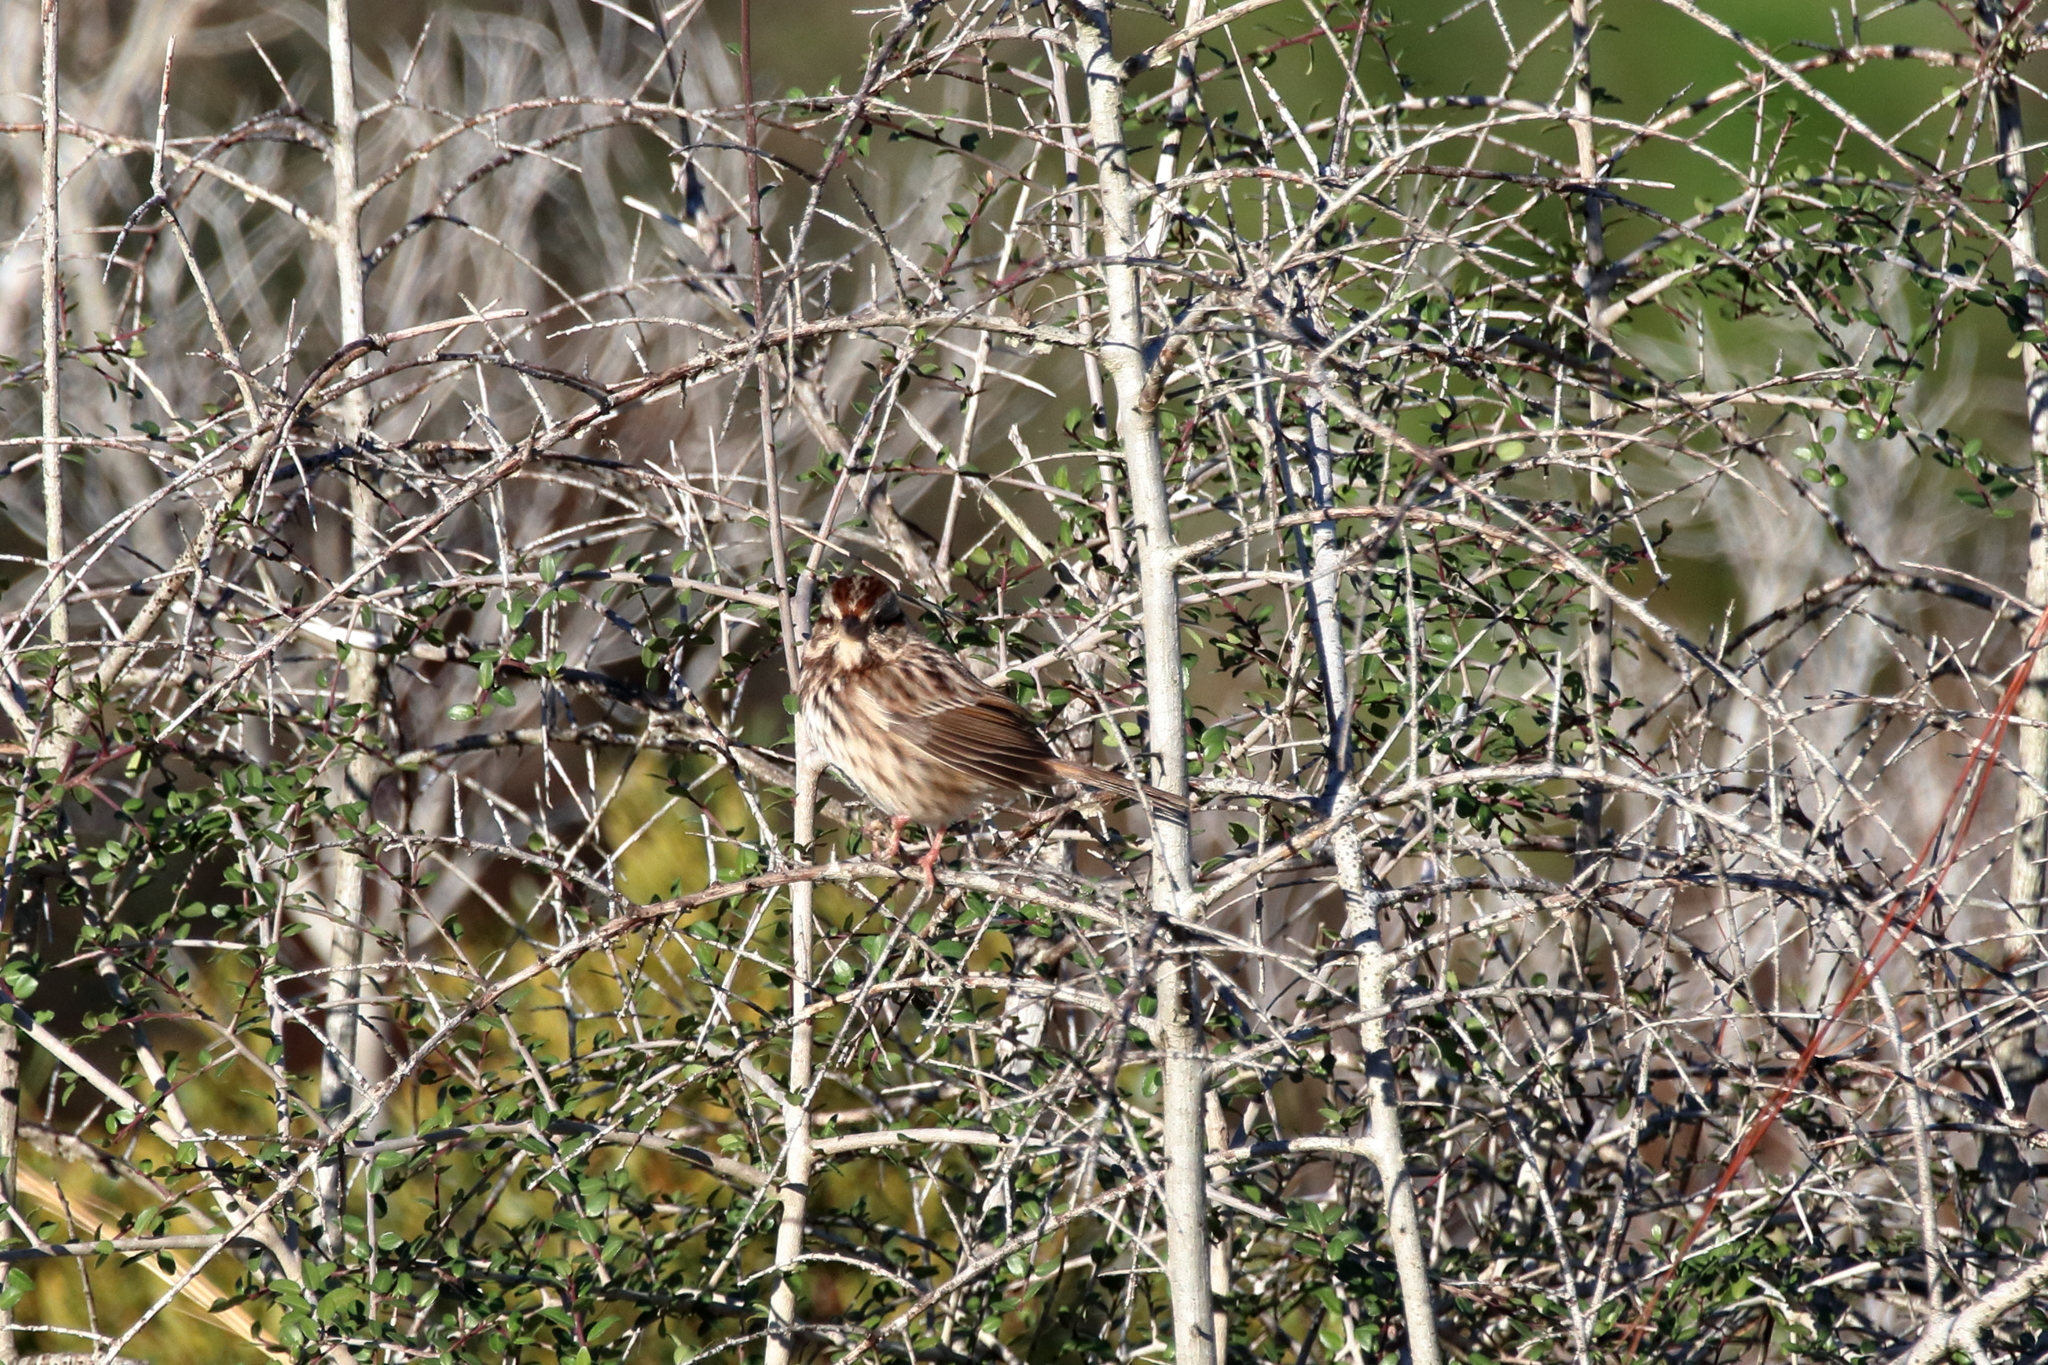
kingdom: Animalia
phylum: Chordata
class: Aves
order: Passeriformes
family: Passerellidae
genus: Melospiza
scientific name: Melospiza melodia
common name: Song sparrow
